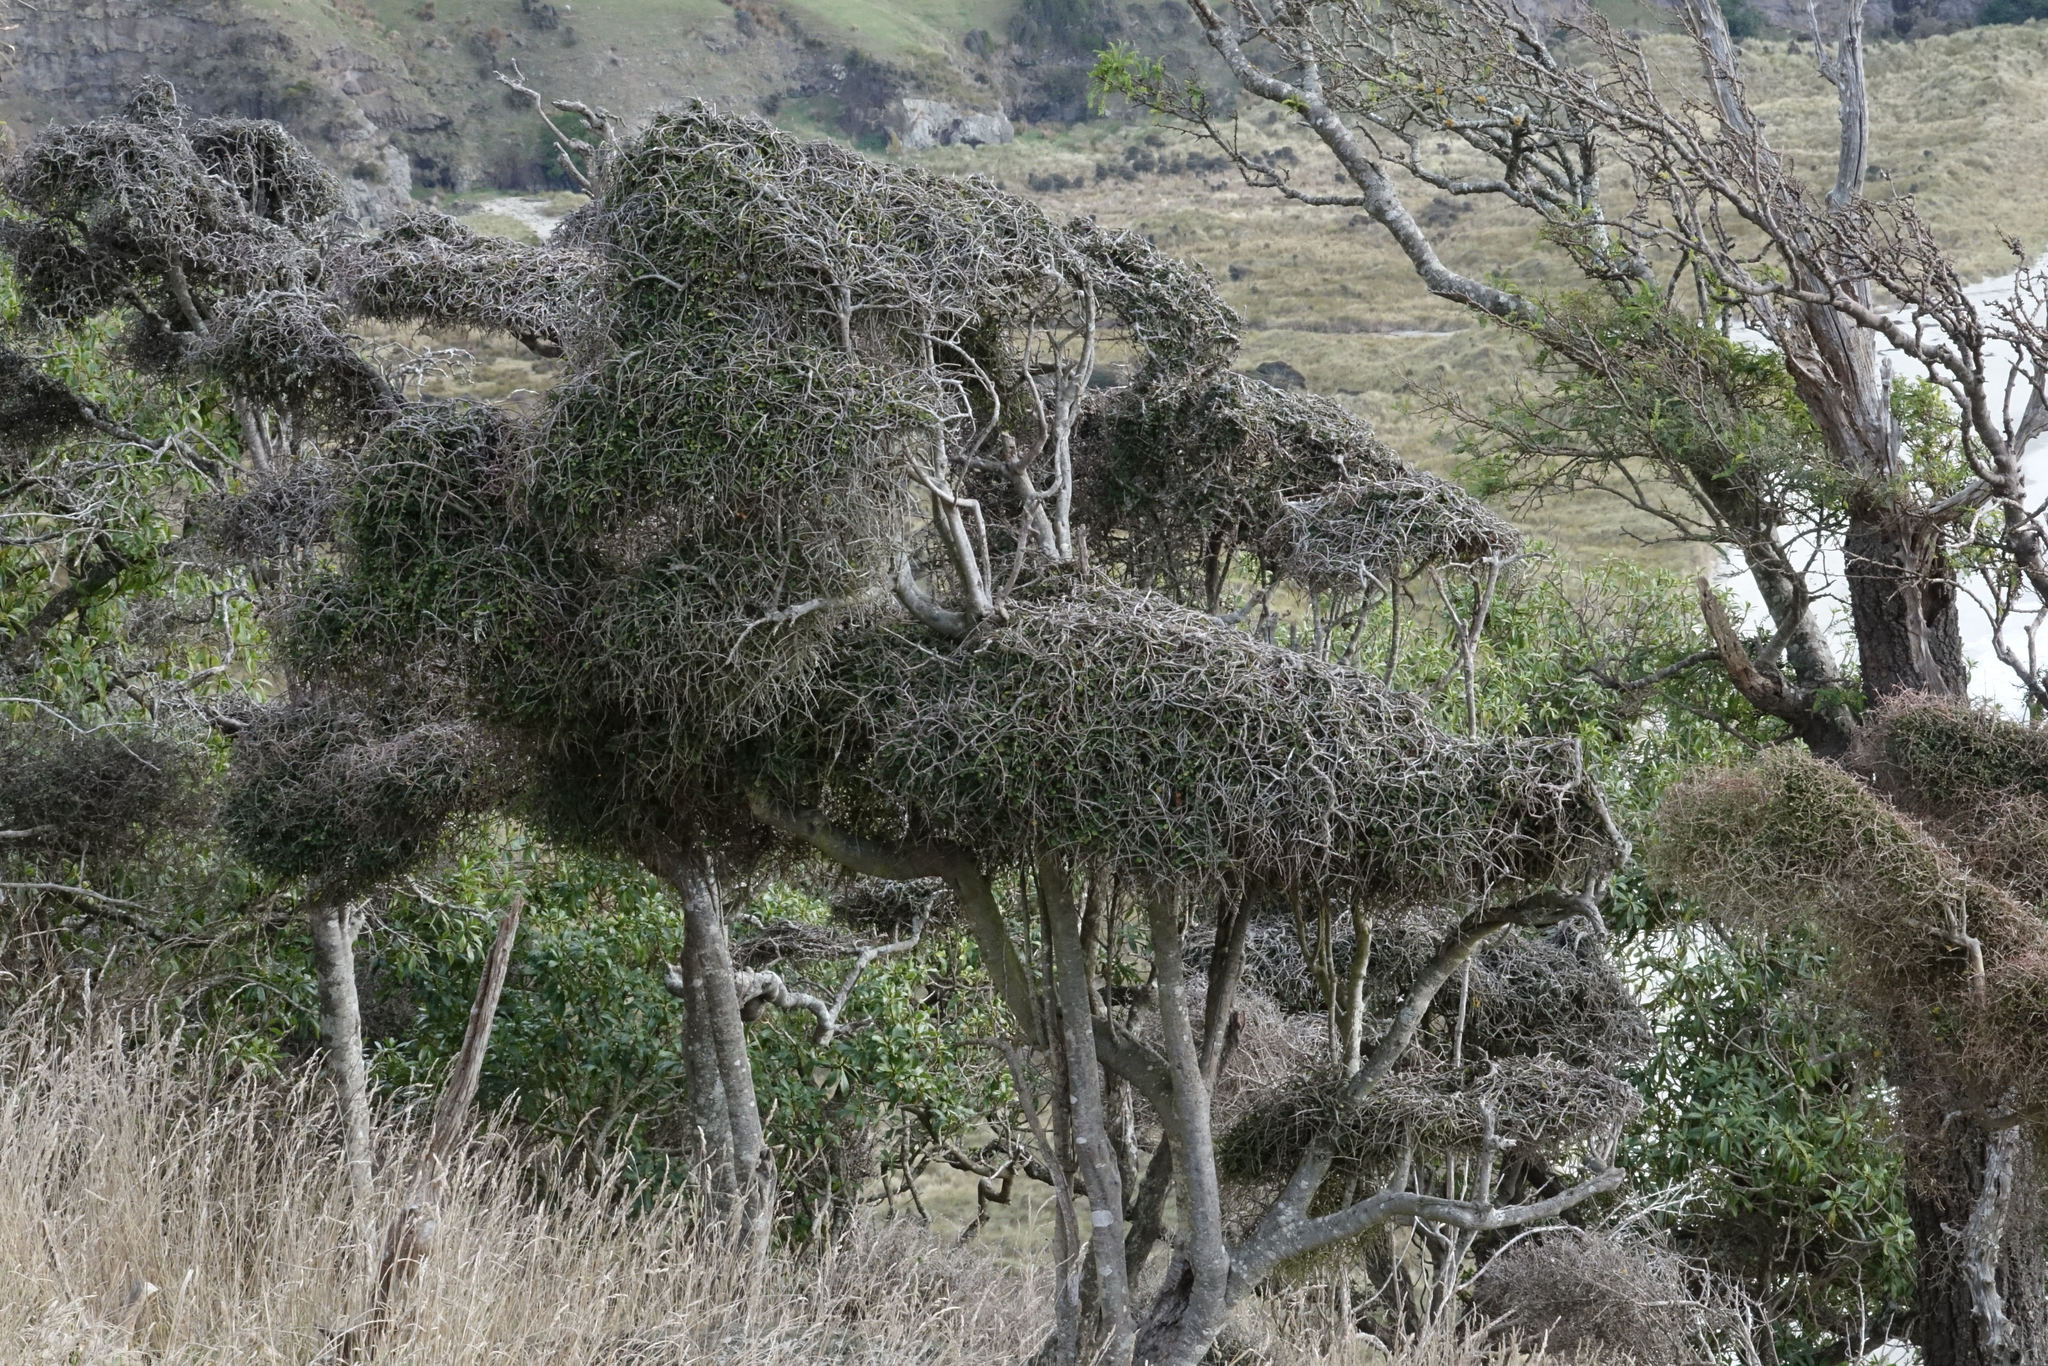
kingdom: Plantae
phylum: Tracheophyta
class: Magnoliopsida
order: Ericales
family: Primulaceae
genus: Myrsine
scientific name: Myrsine divaricata
